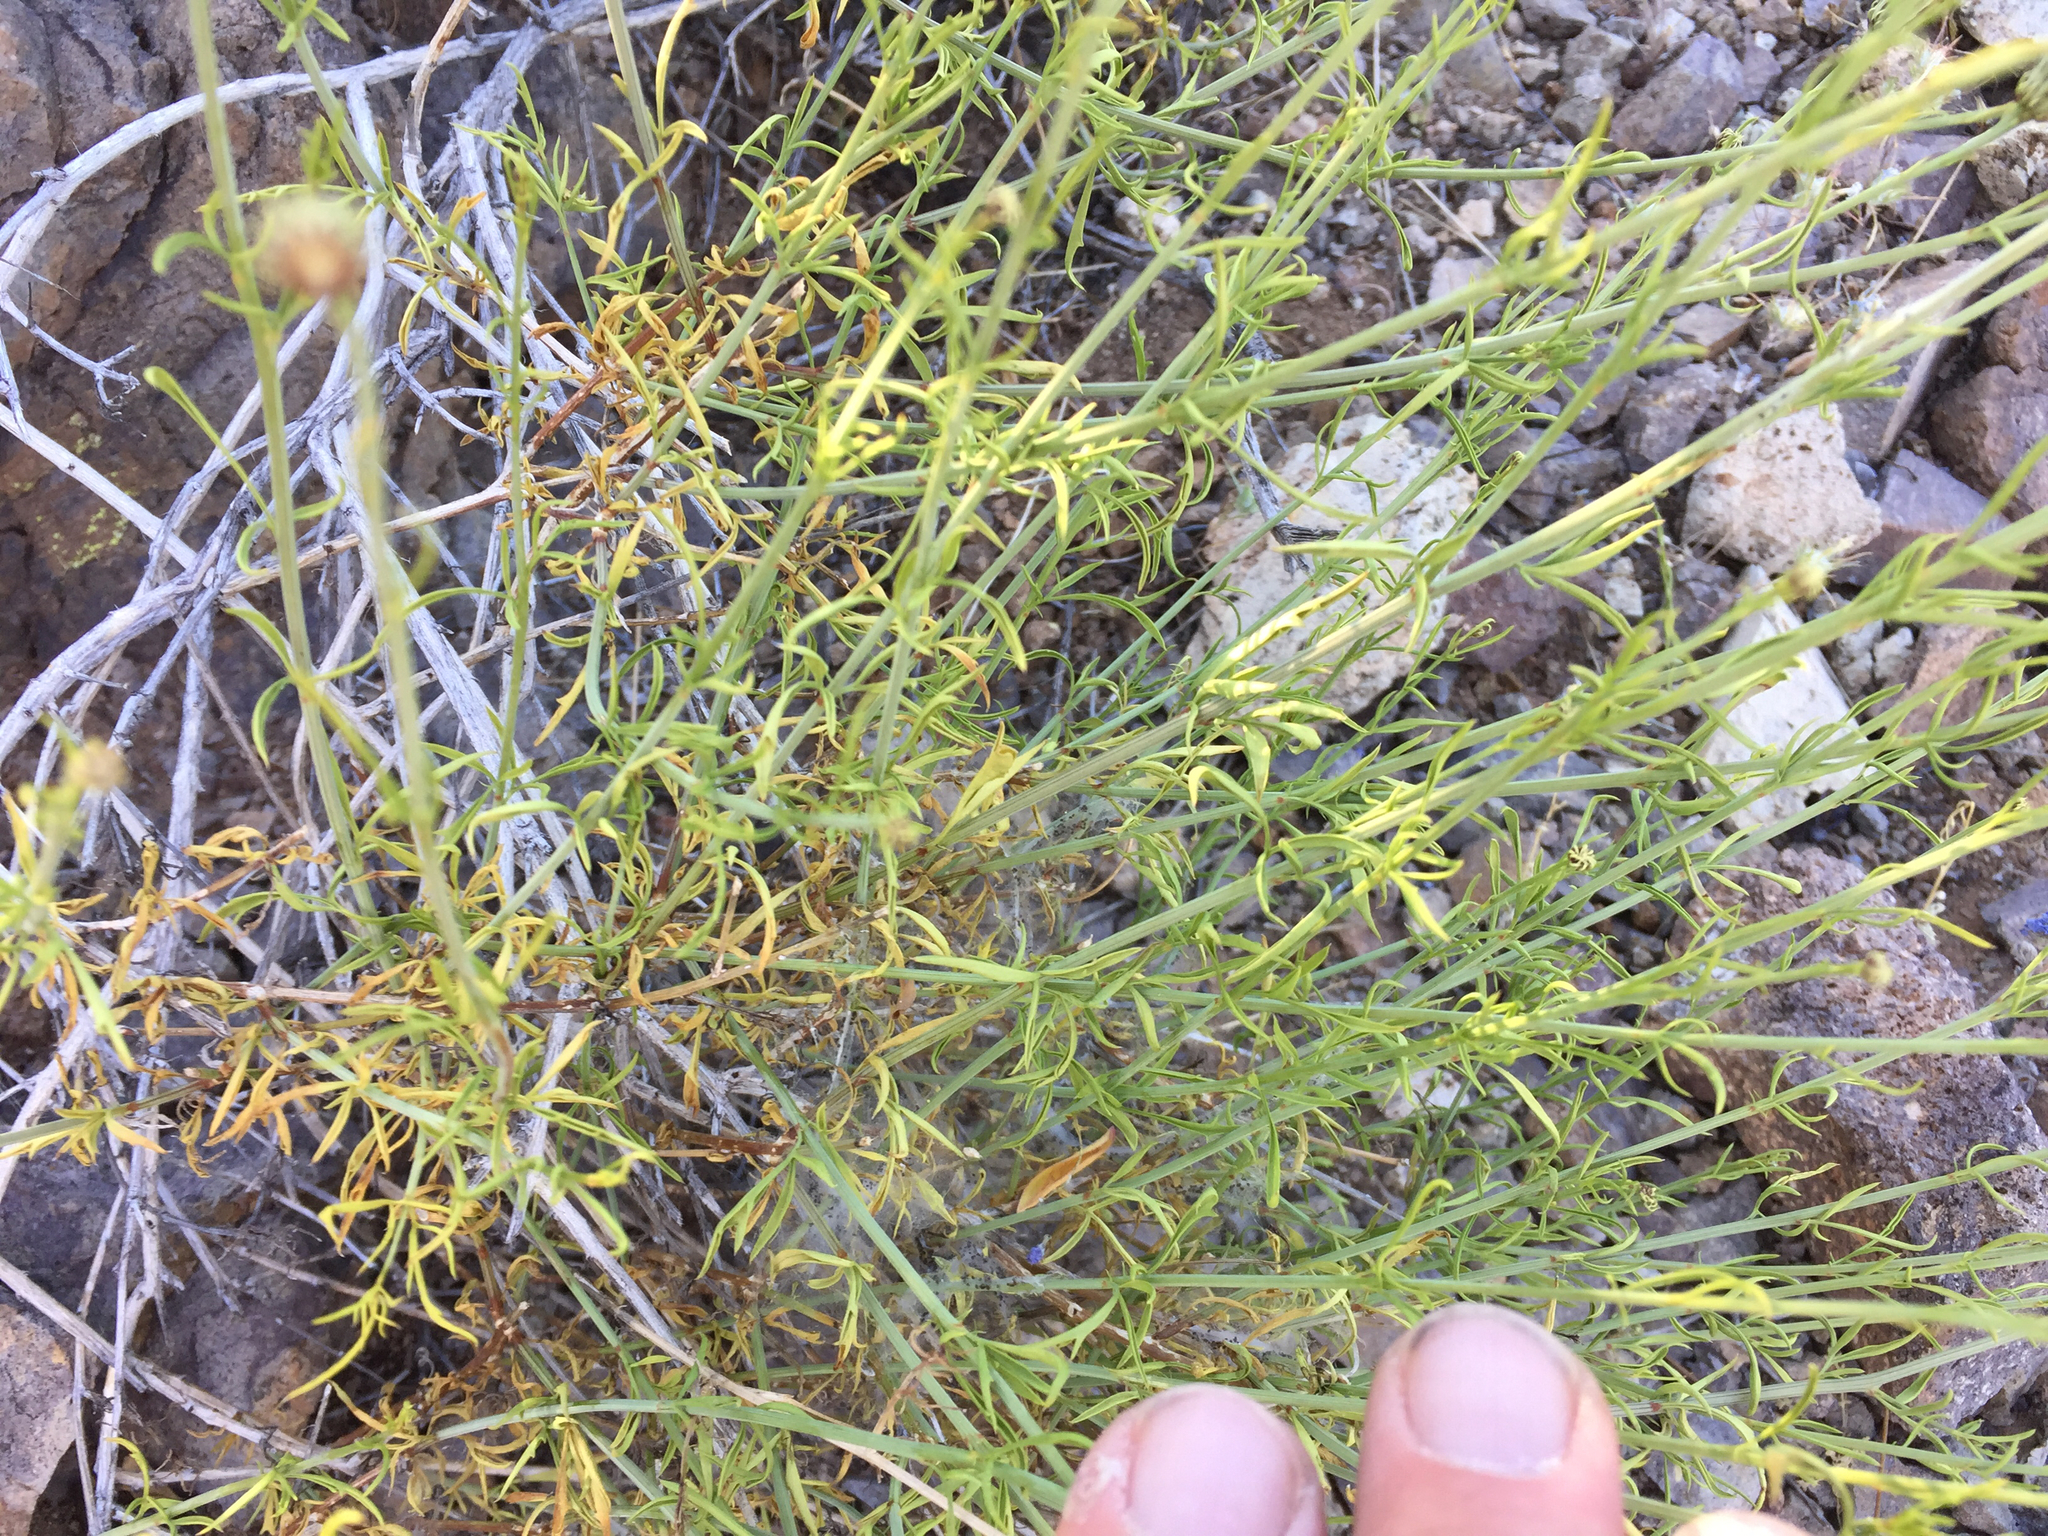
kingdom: Plantae
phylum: Tracheophyta
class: Magnoliopsida
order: Asterales
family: Asteraceae
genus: Adenophyllum
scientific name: Adenophyllum porophylloides
